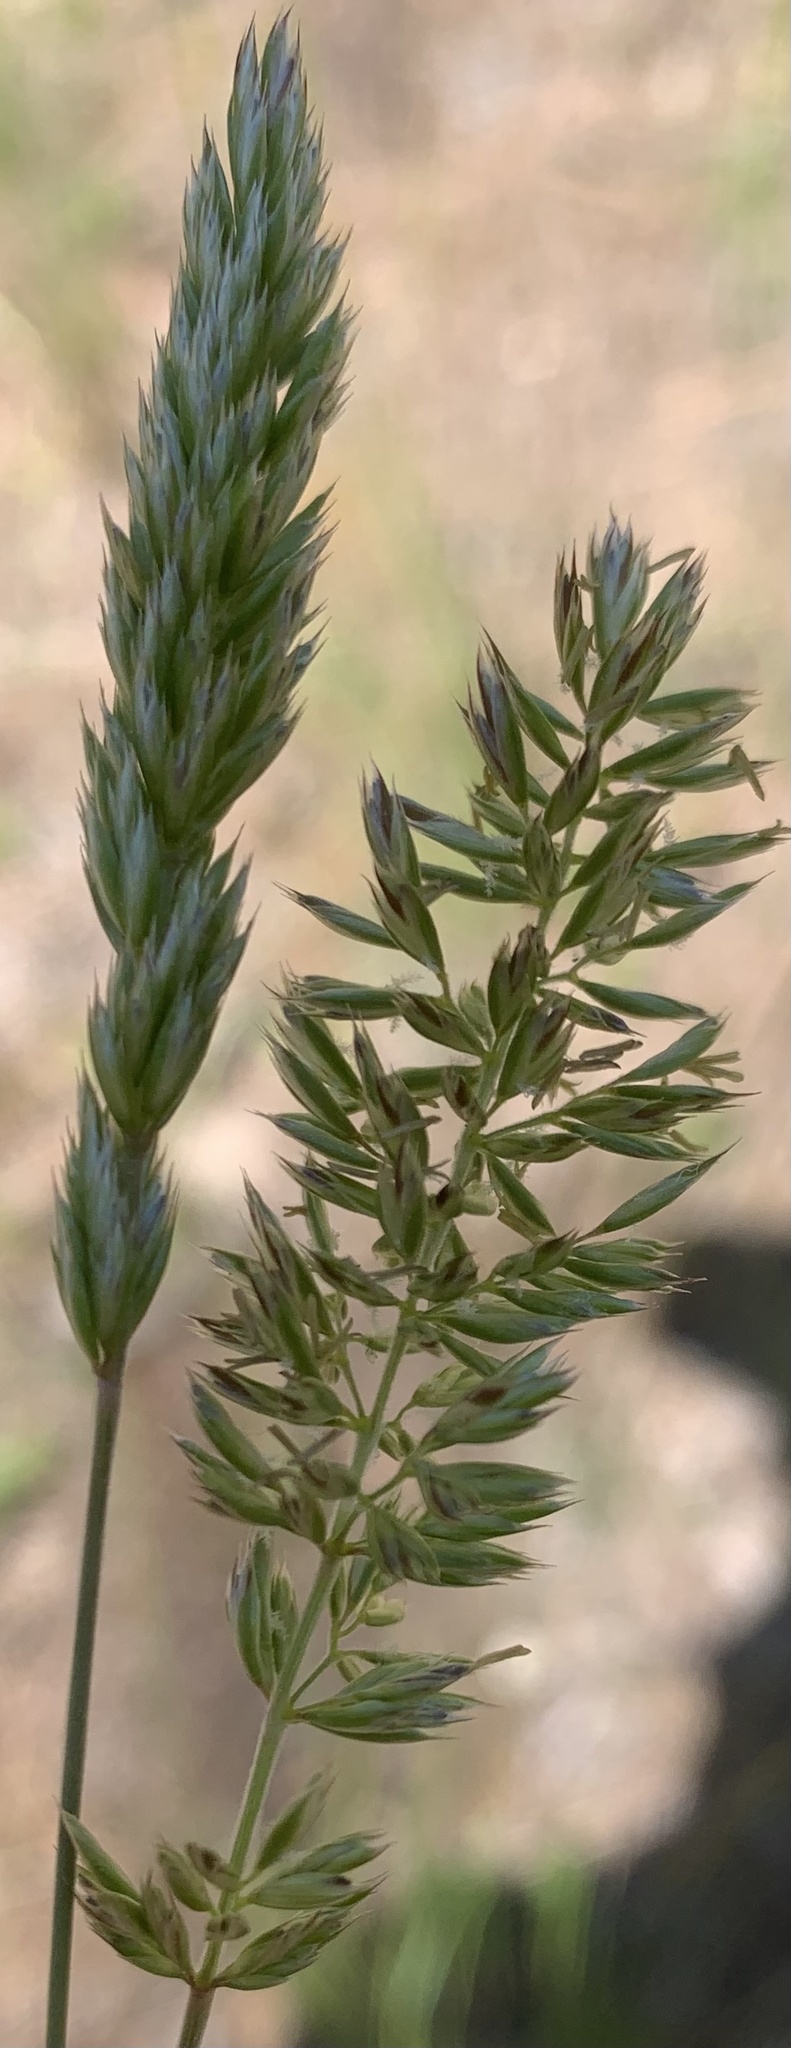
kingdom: Plantae
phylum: Tracheophyta
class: Liliopsida
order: Poales
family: Poaceae
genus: Koeleria
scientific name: Koeleria macrantha
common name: Crested hair-grass
